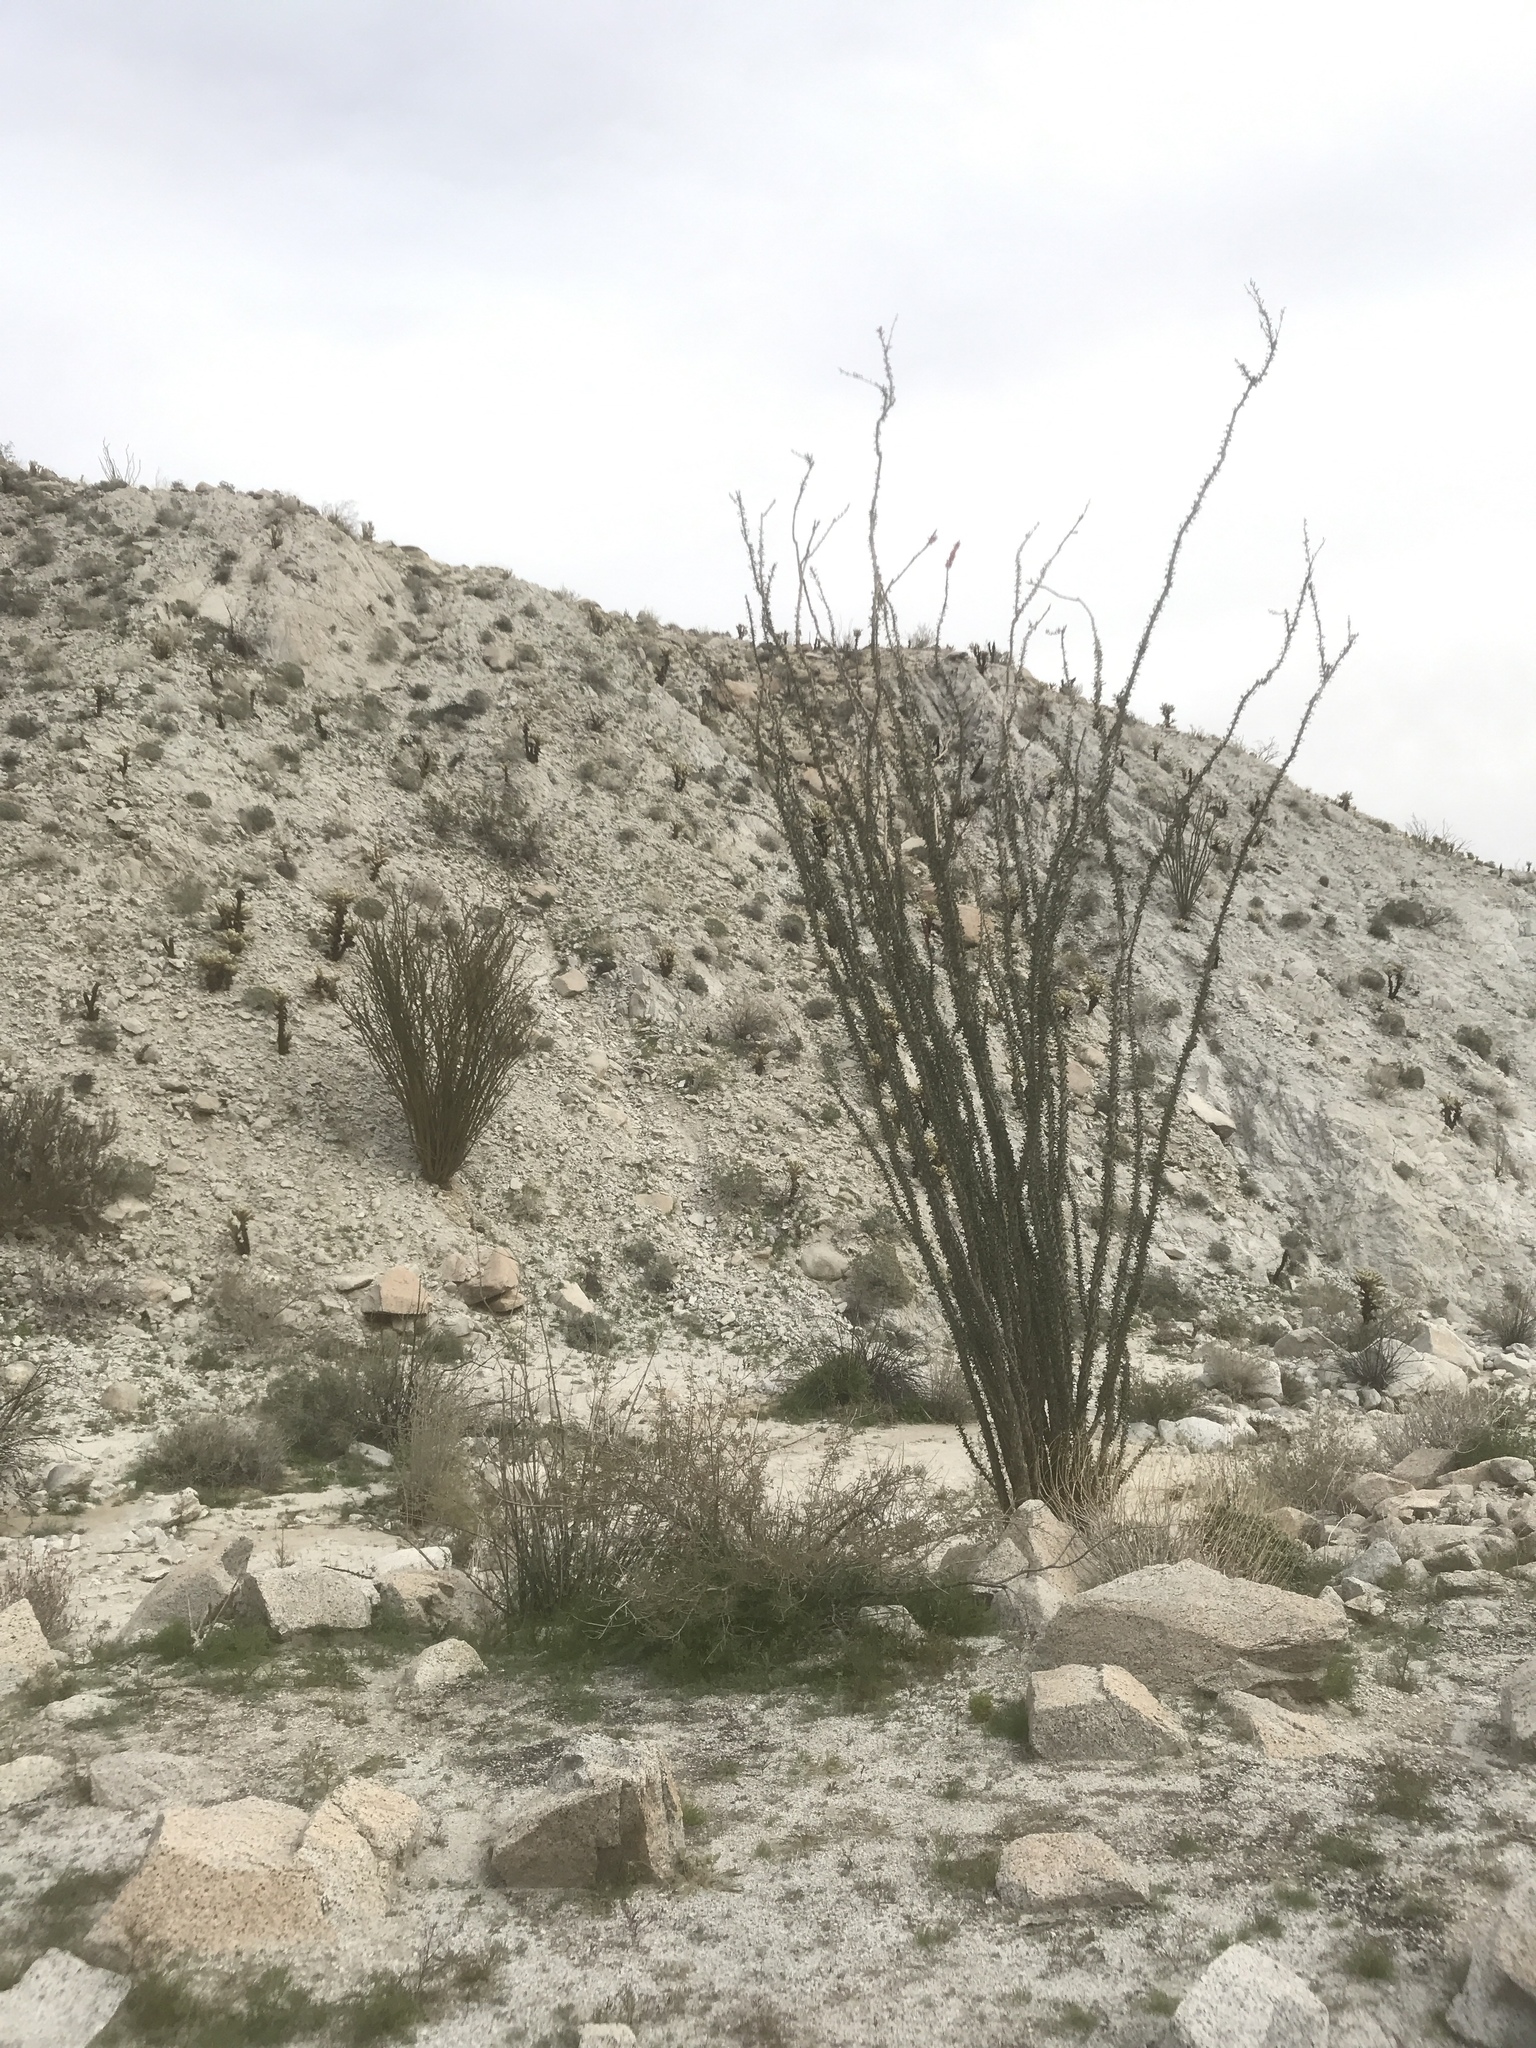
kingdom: Plantae
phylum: Tracheophyta
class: Magnoliopsida
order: Ericales
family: Fouquieriaceae
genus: Fouquieria
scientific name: Fouquieria splendens
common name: Vine-cactus
